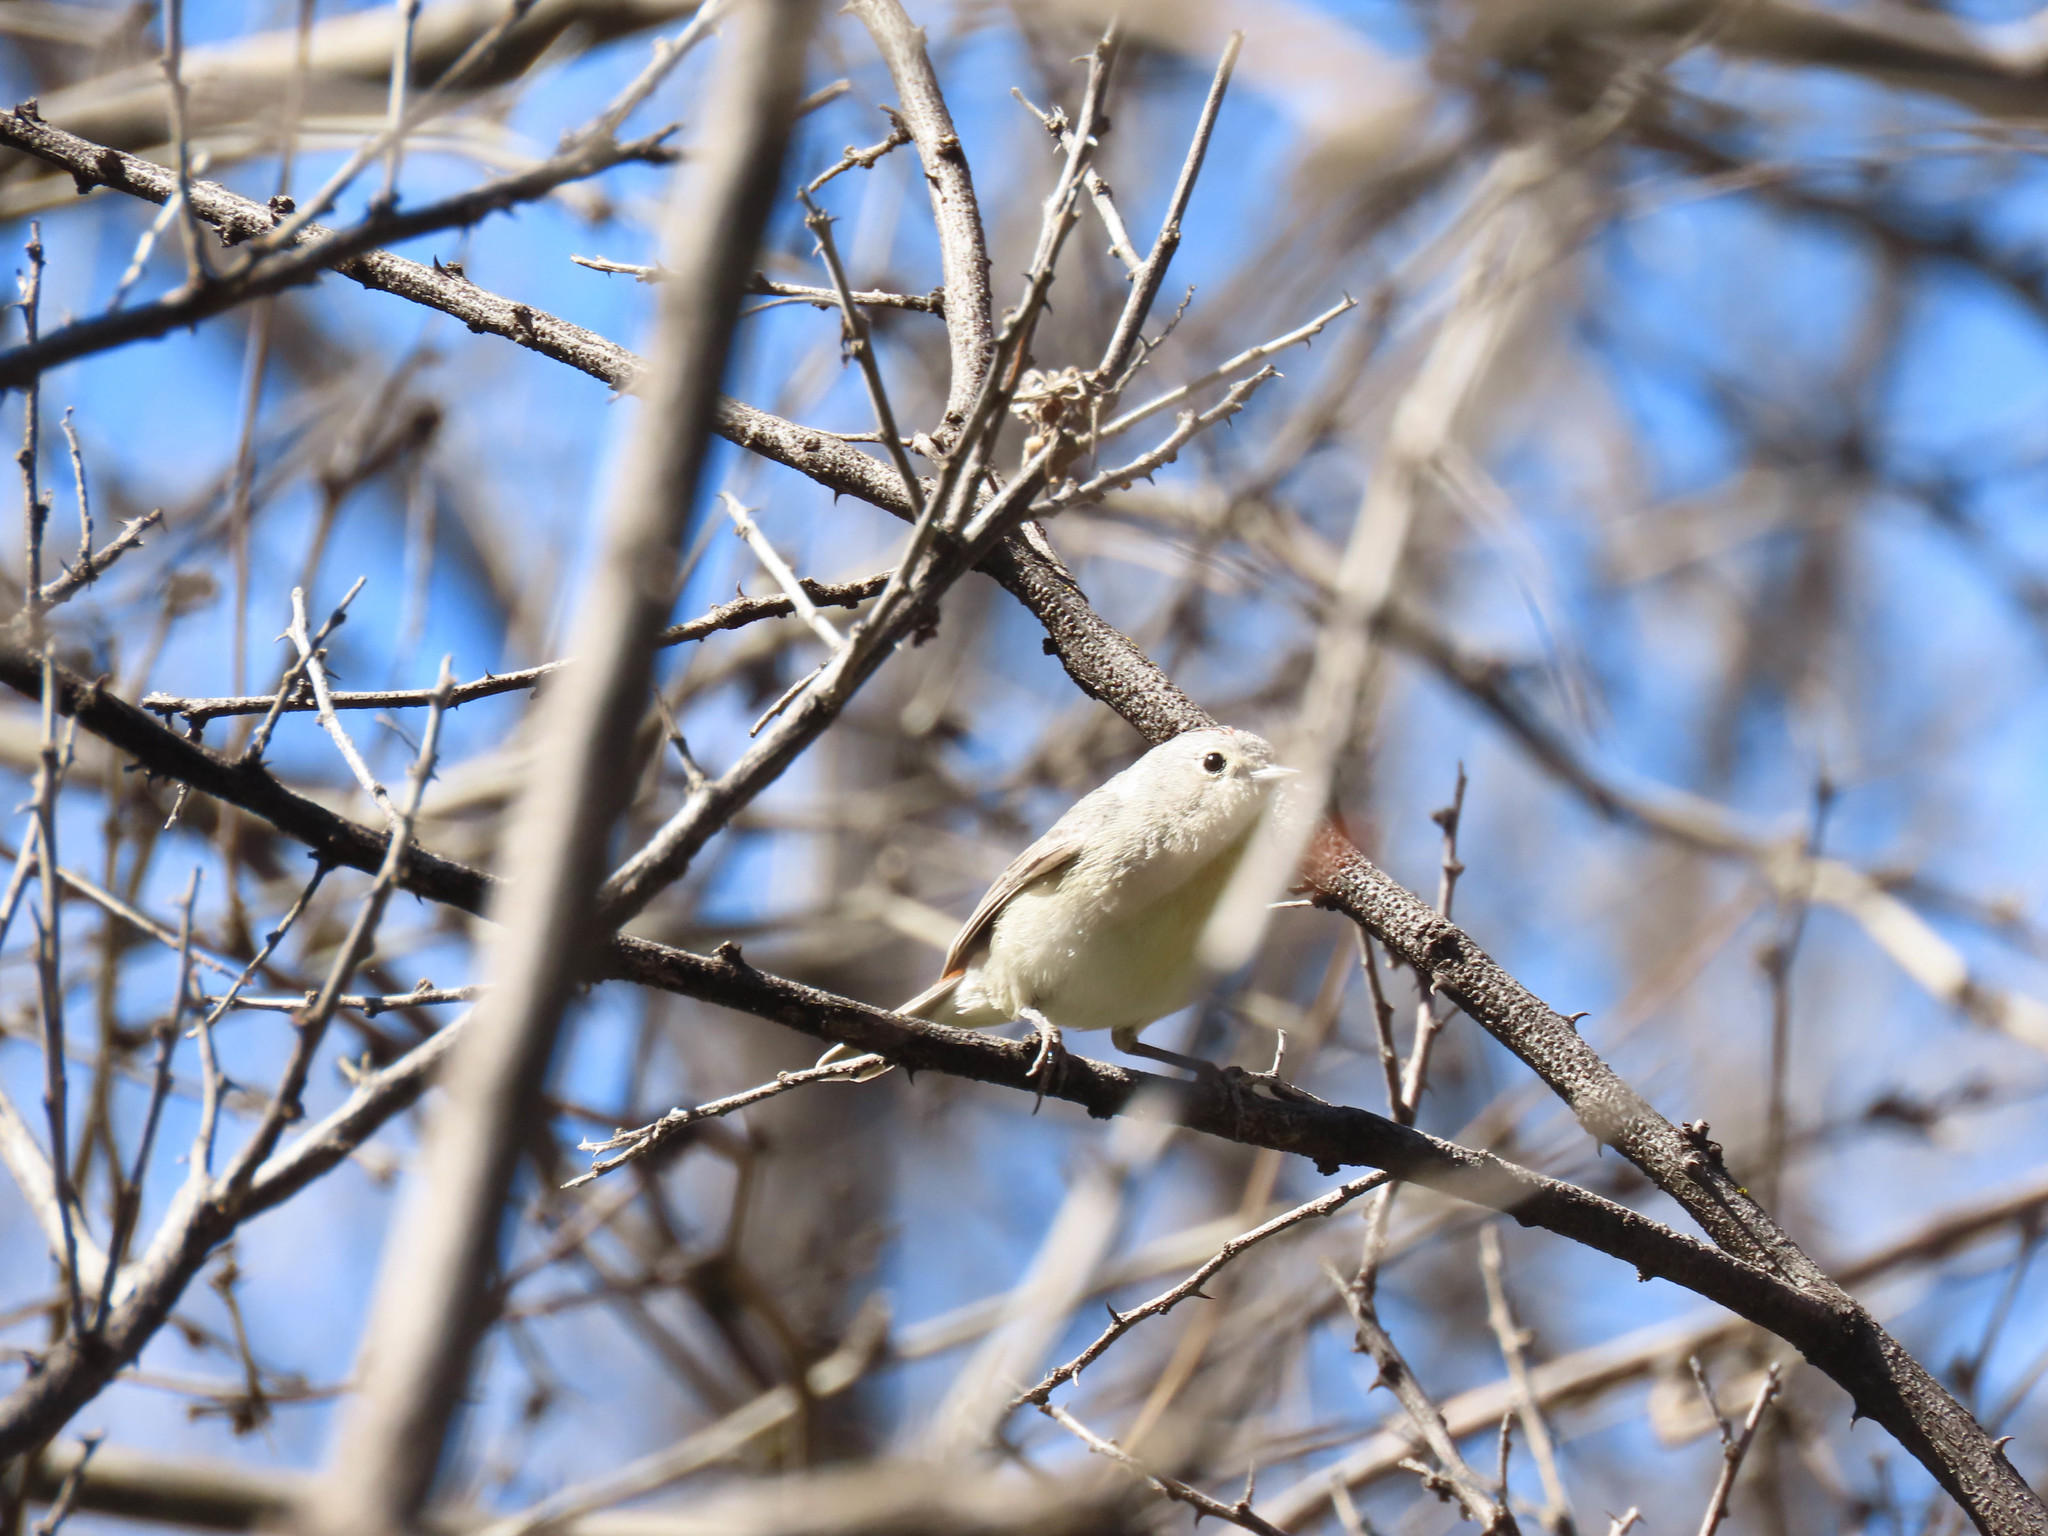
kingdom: Animalia
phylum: Chordata
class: Aves
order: Passeriformes
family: Parulidae
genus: Leiothlypis
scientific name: Leiothlypis luciae
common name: Lucy's warbler
